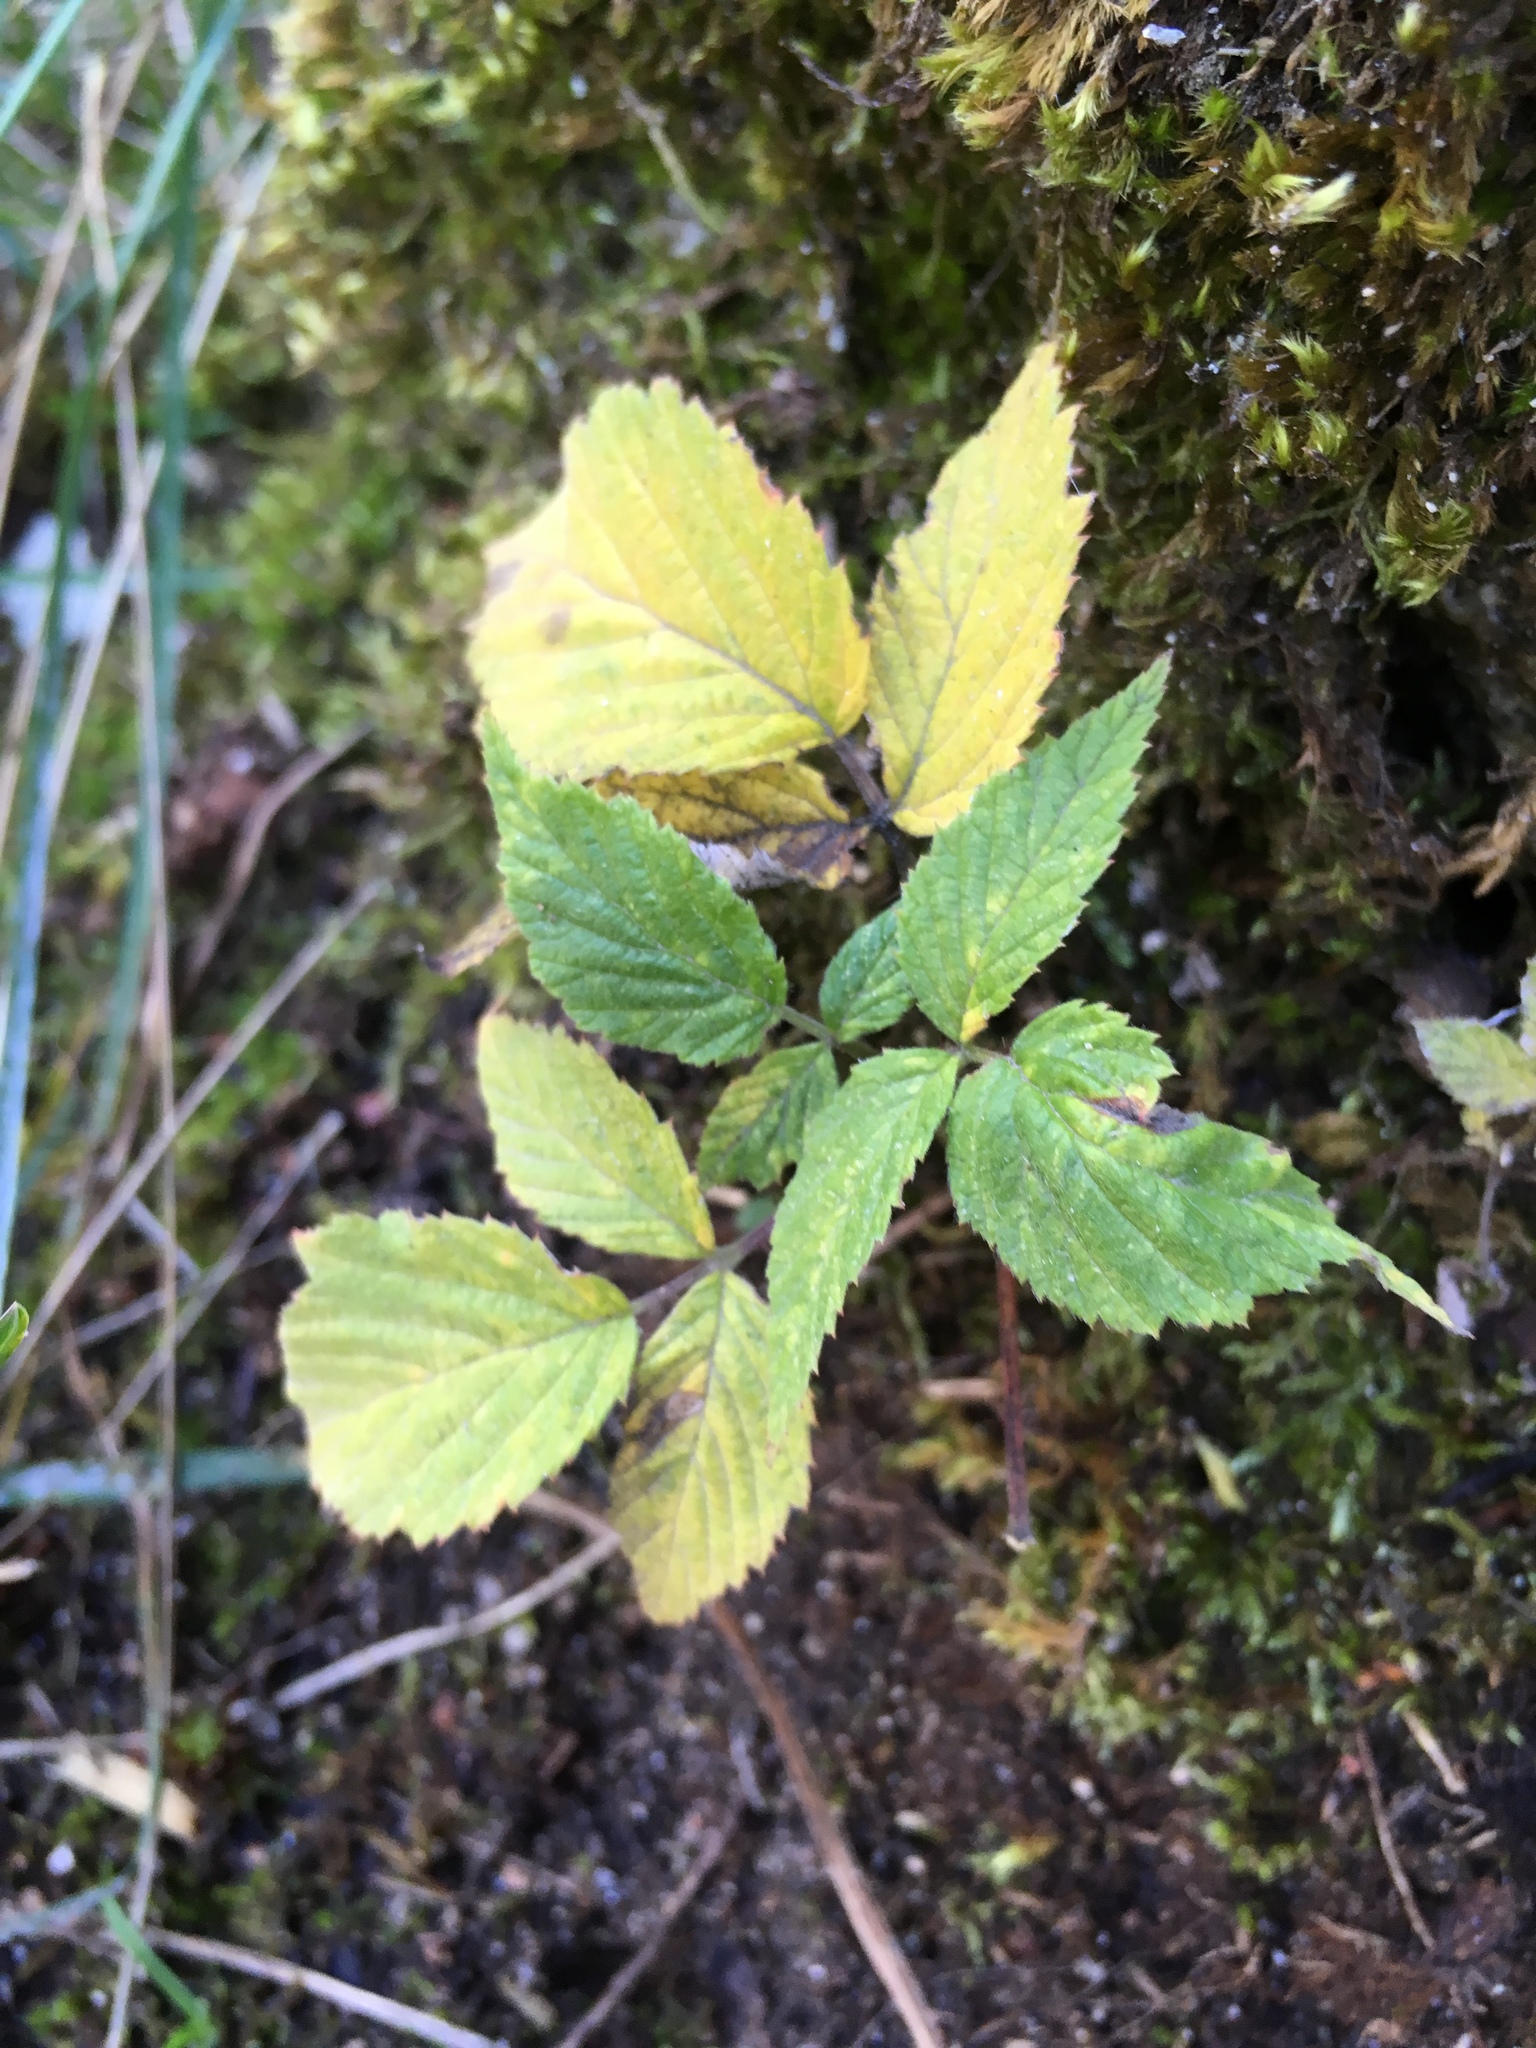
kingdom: Plantae
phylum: Tracheophyta
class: Magnoliopsida
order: Apiales
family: Apiaceae
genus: Aegopodium
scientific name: Aegopodium podagraria
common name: Ground-elder
